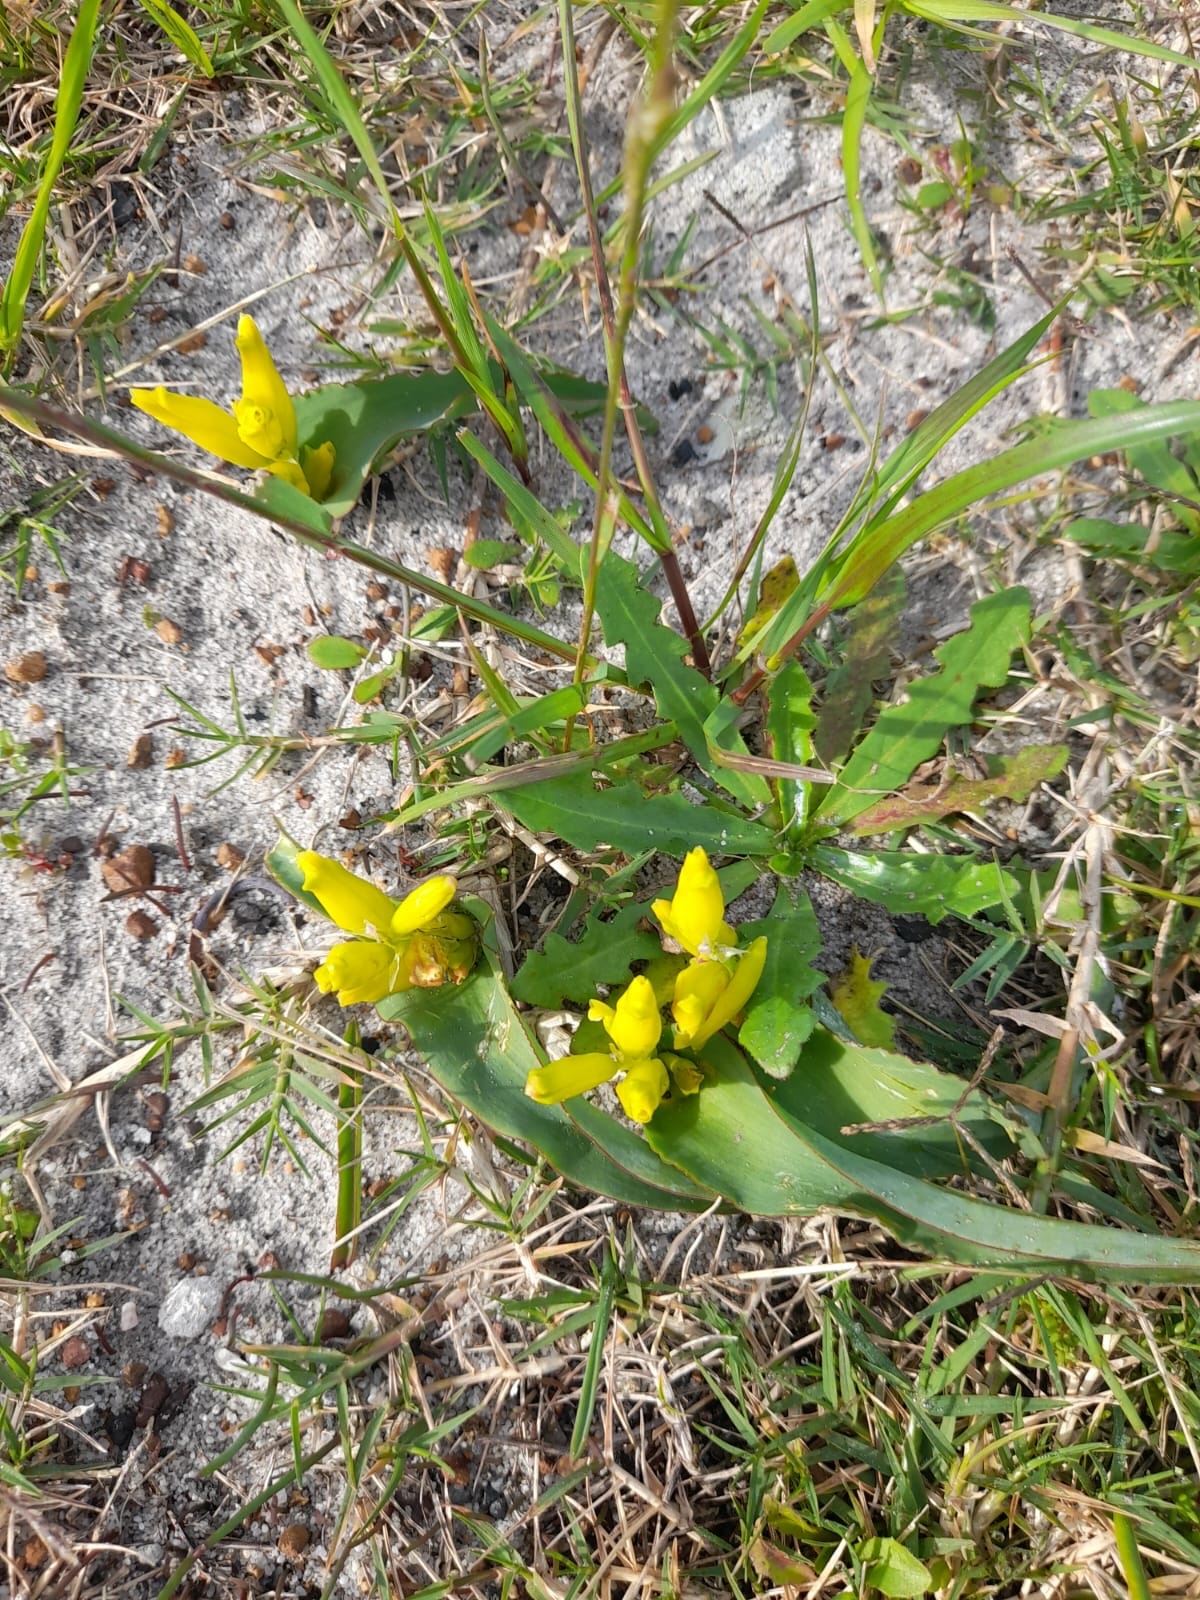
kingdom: Plantae
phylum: Tracheophyta
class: Liliopsida
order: Asparagales
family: Asparagaceae
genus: Lachenalia
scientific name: Lachenalia reflexa
